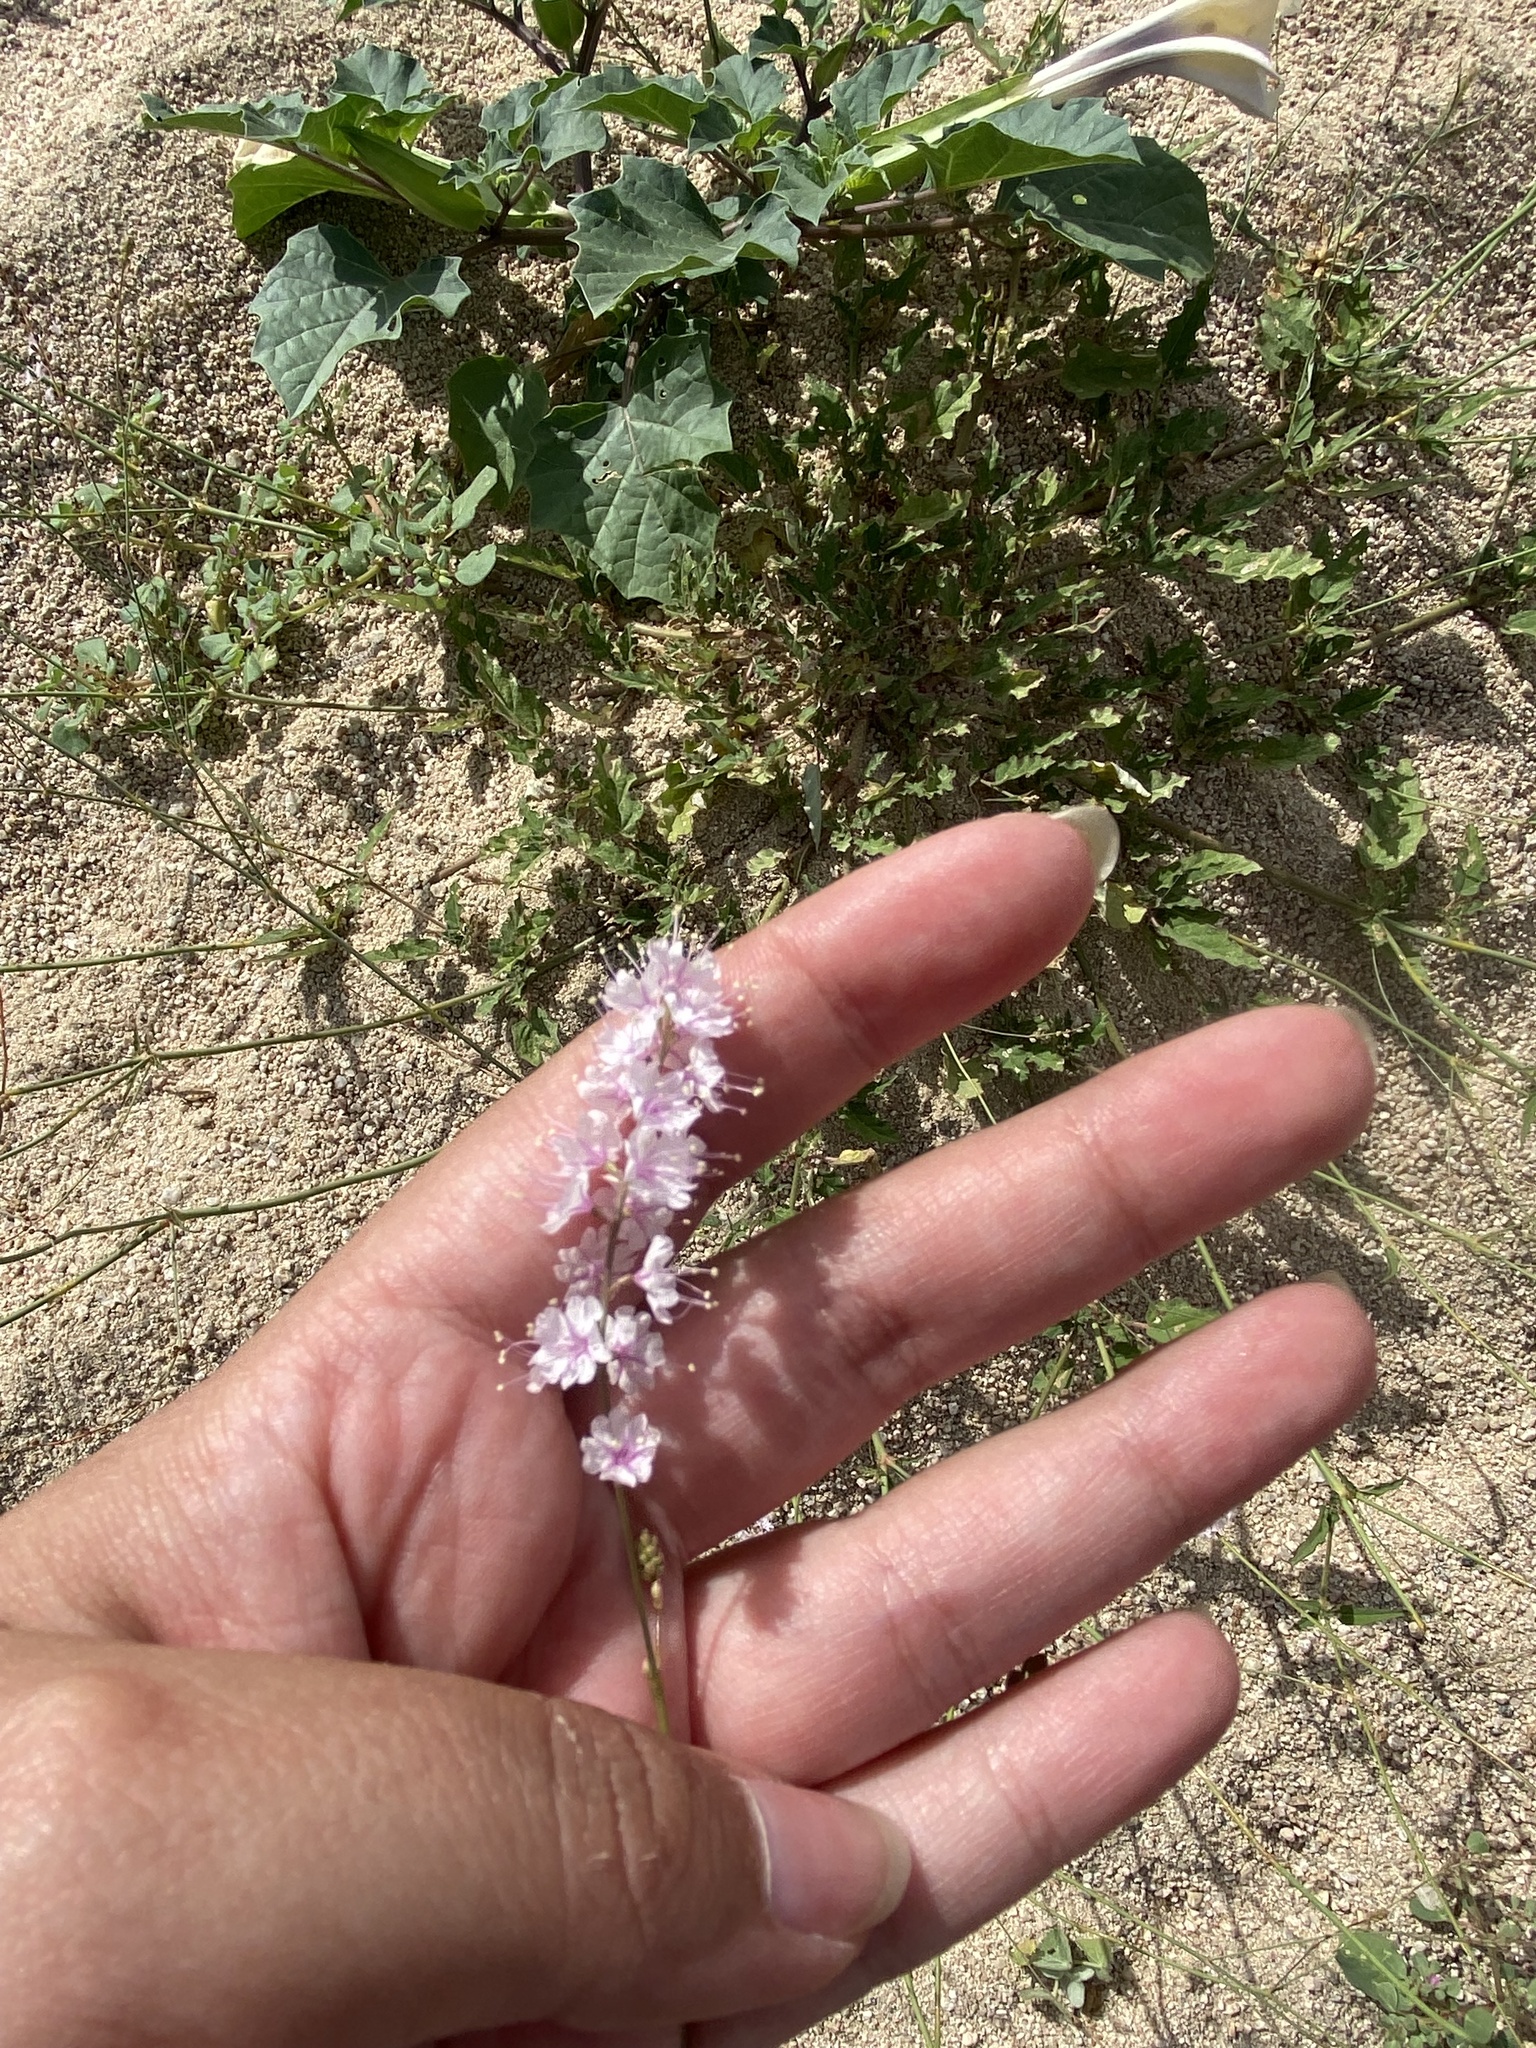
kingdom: Plantae
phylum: Tracheophyta
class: Magnoliopsida
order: Caryophyllales
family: Nyctaginaceae
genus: Boerhavia
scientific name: Boerhavia xantii
